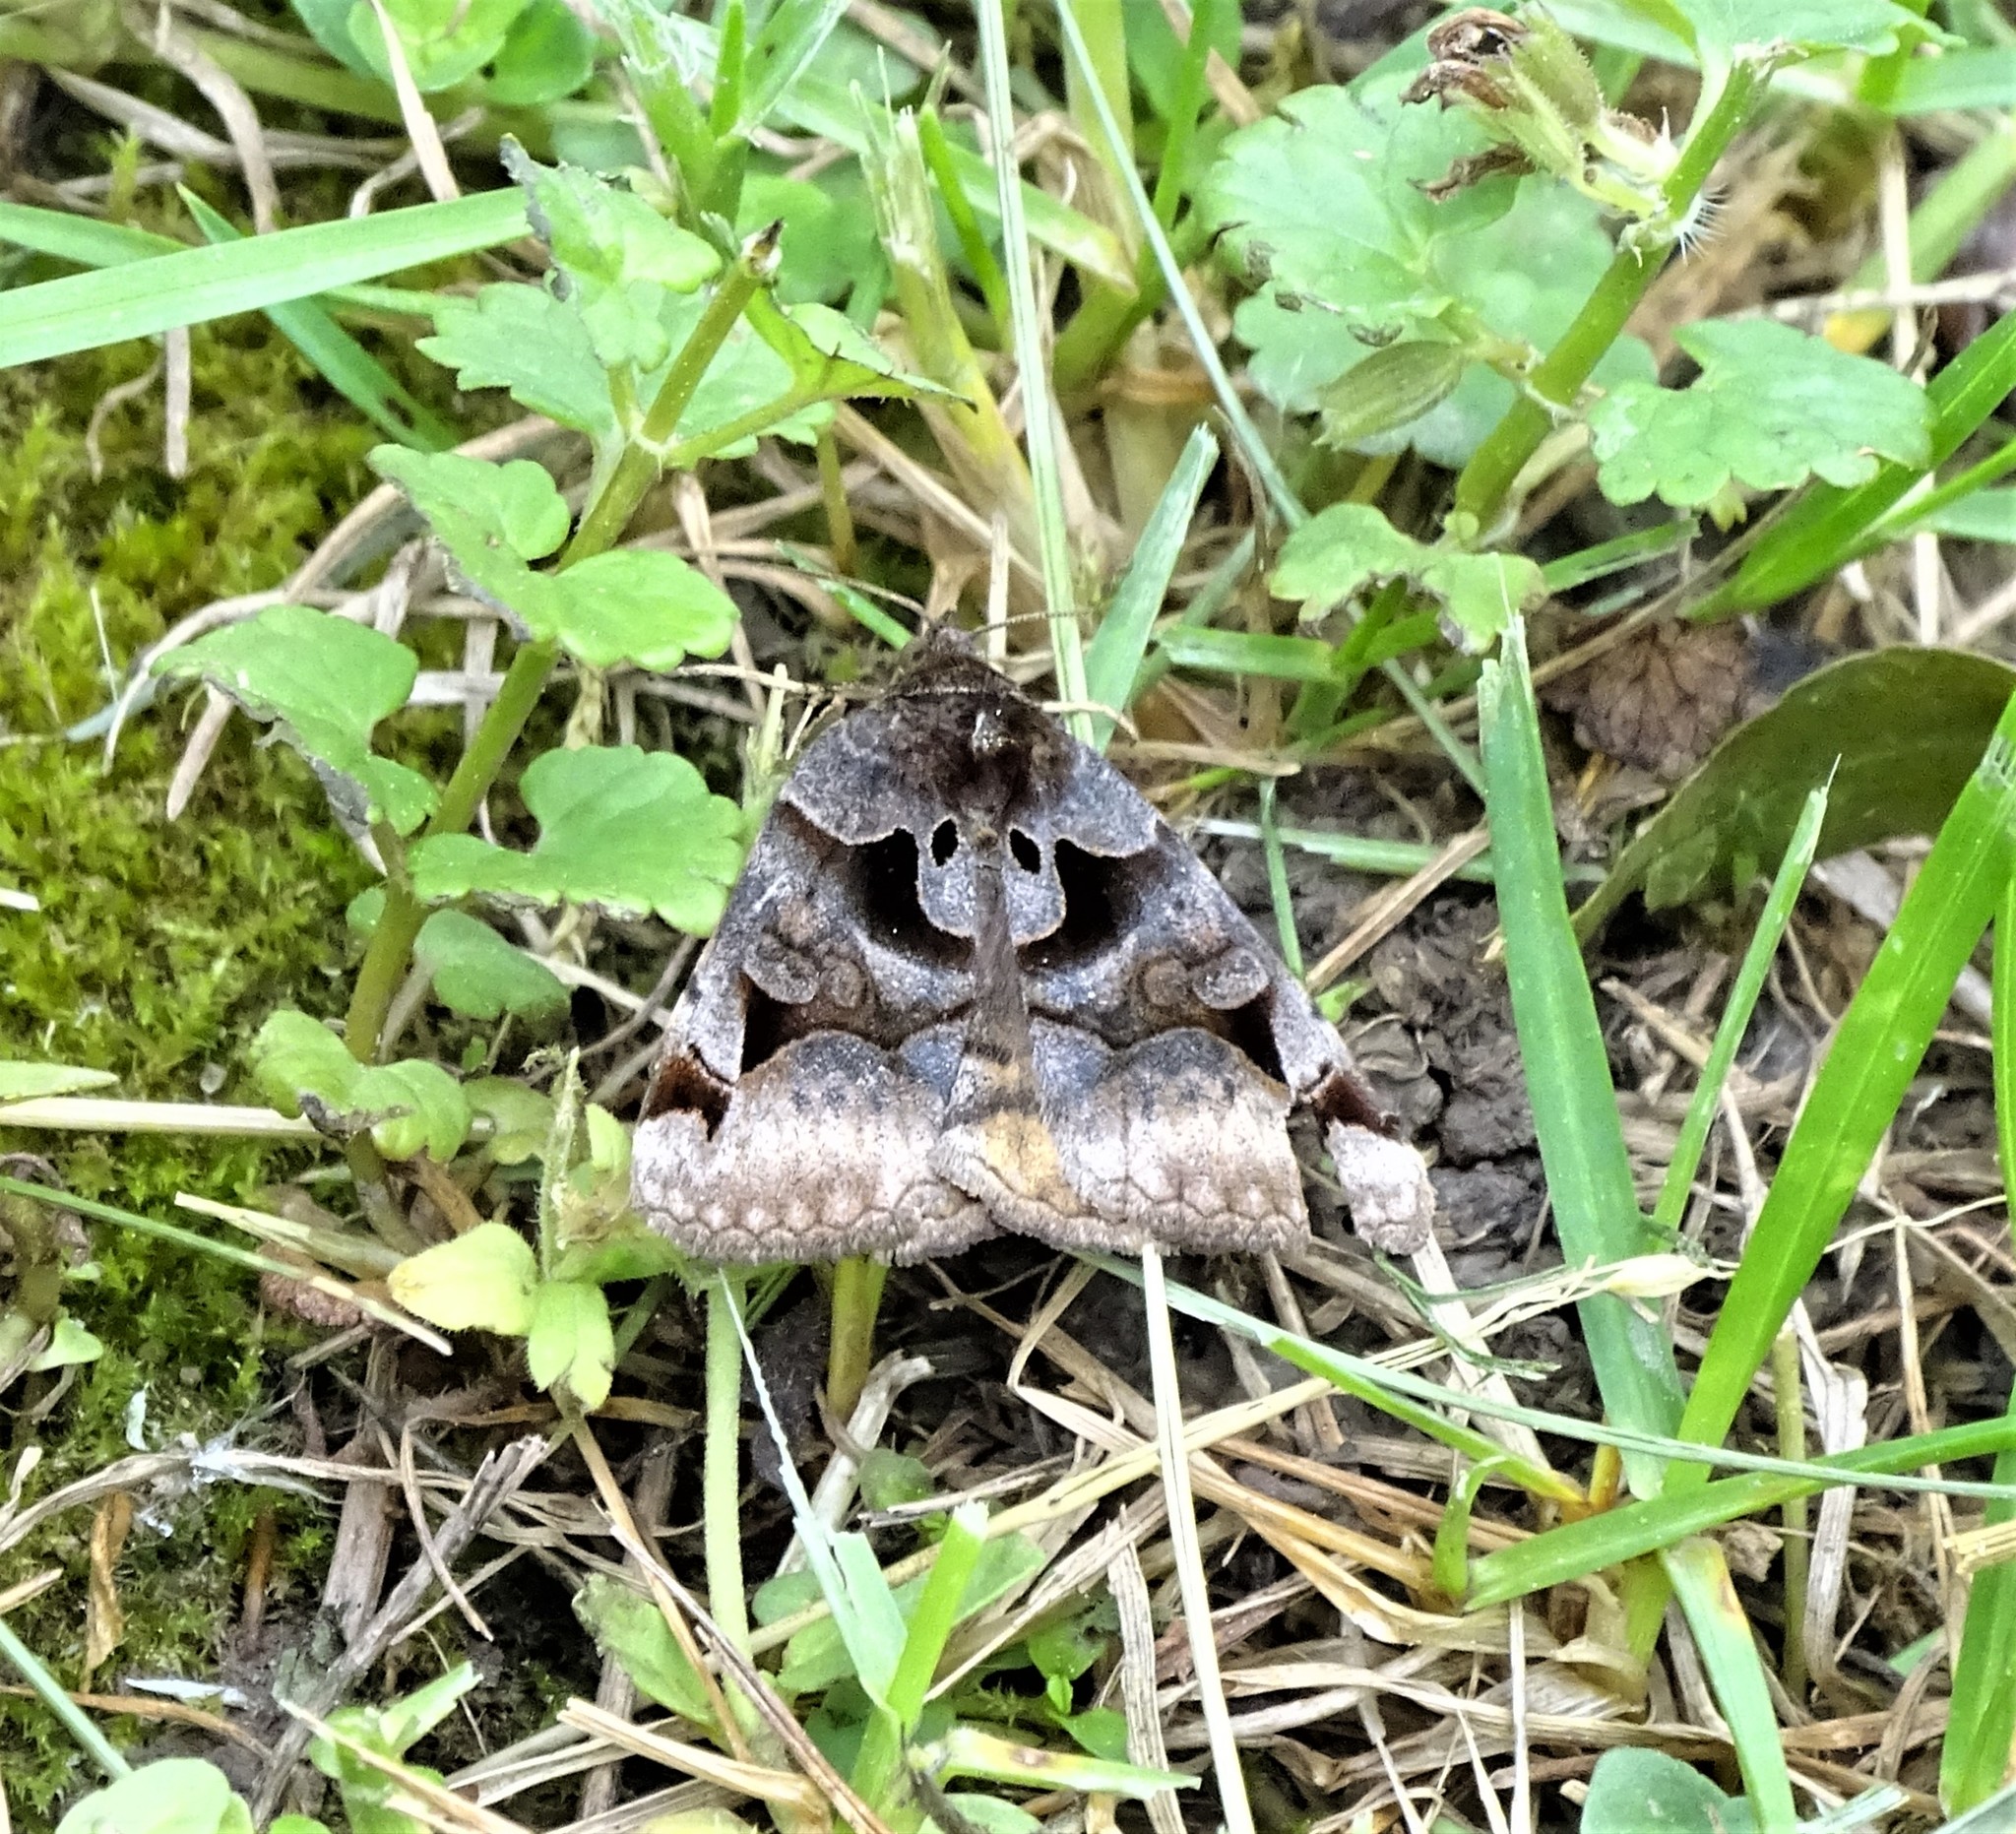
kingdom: Animalia
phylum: Arthropoda
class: Insecta
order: Lepidoptera
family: Erebidae
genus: Euclidia
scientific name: Euclidia cuspidea
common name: Toothed somberwing
